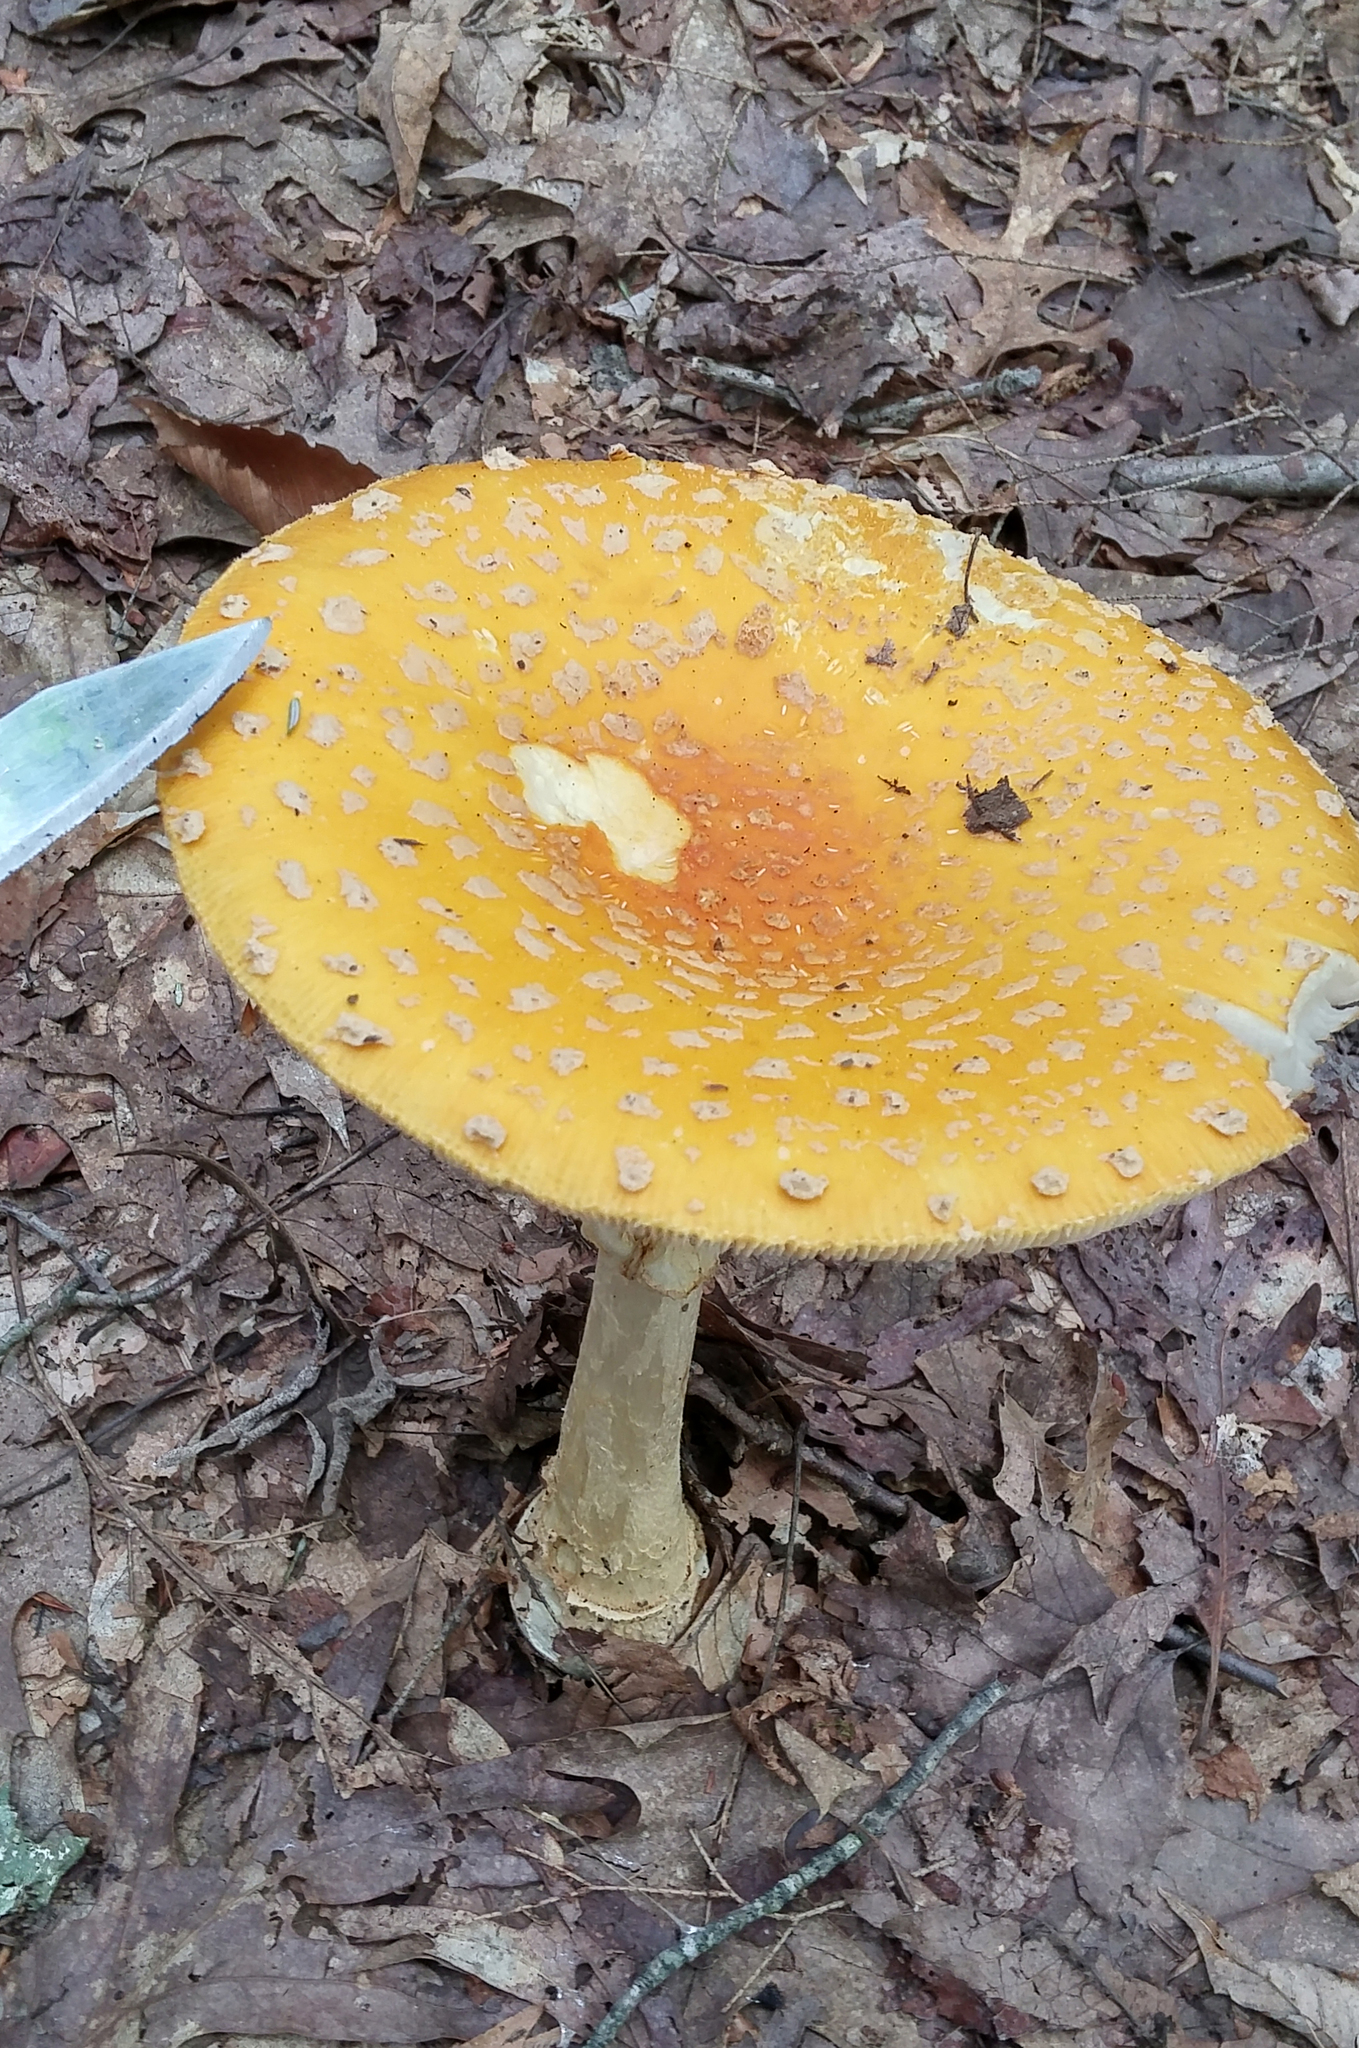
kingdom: Fungi
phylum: Basidiomycota
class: Agaricomycetes
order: Agaricales
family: Amanitaceae
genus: Amanita
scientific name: Amanita muscaria
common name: Fly agaric
